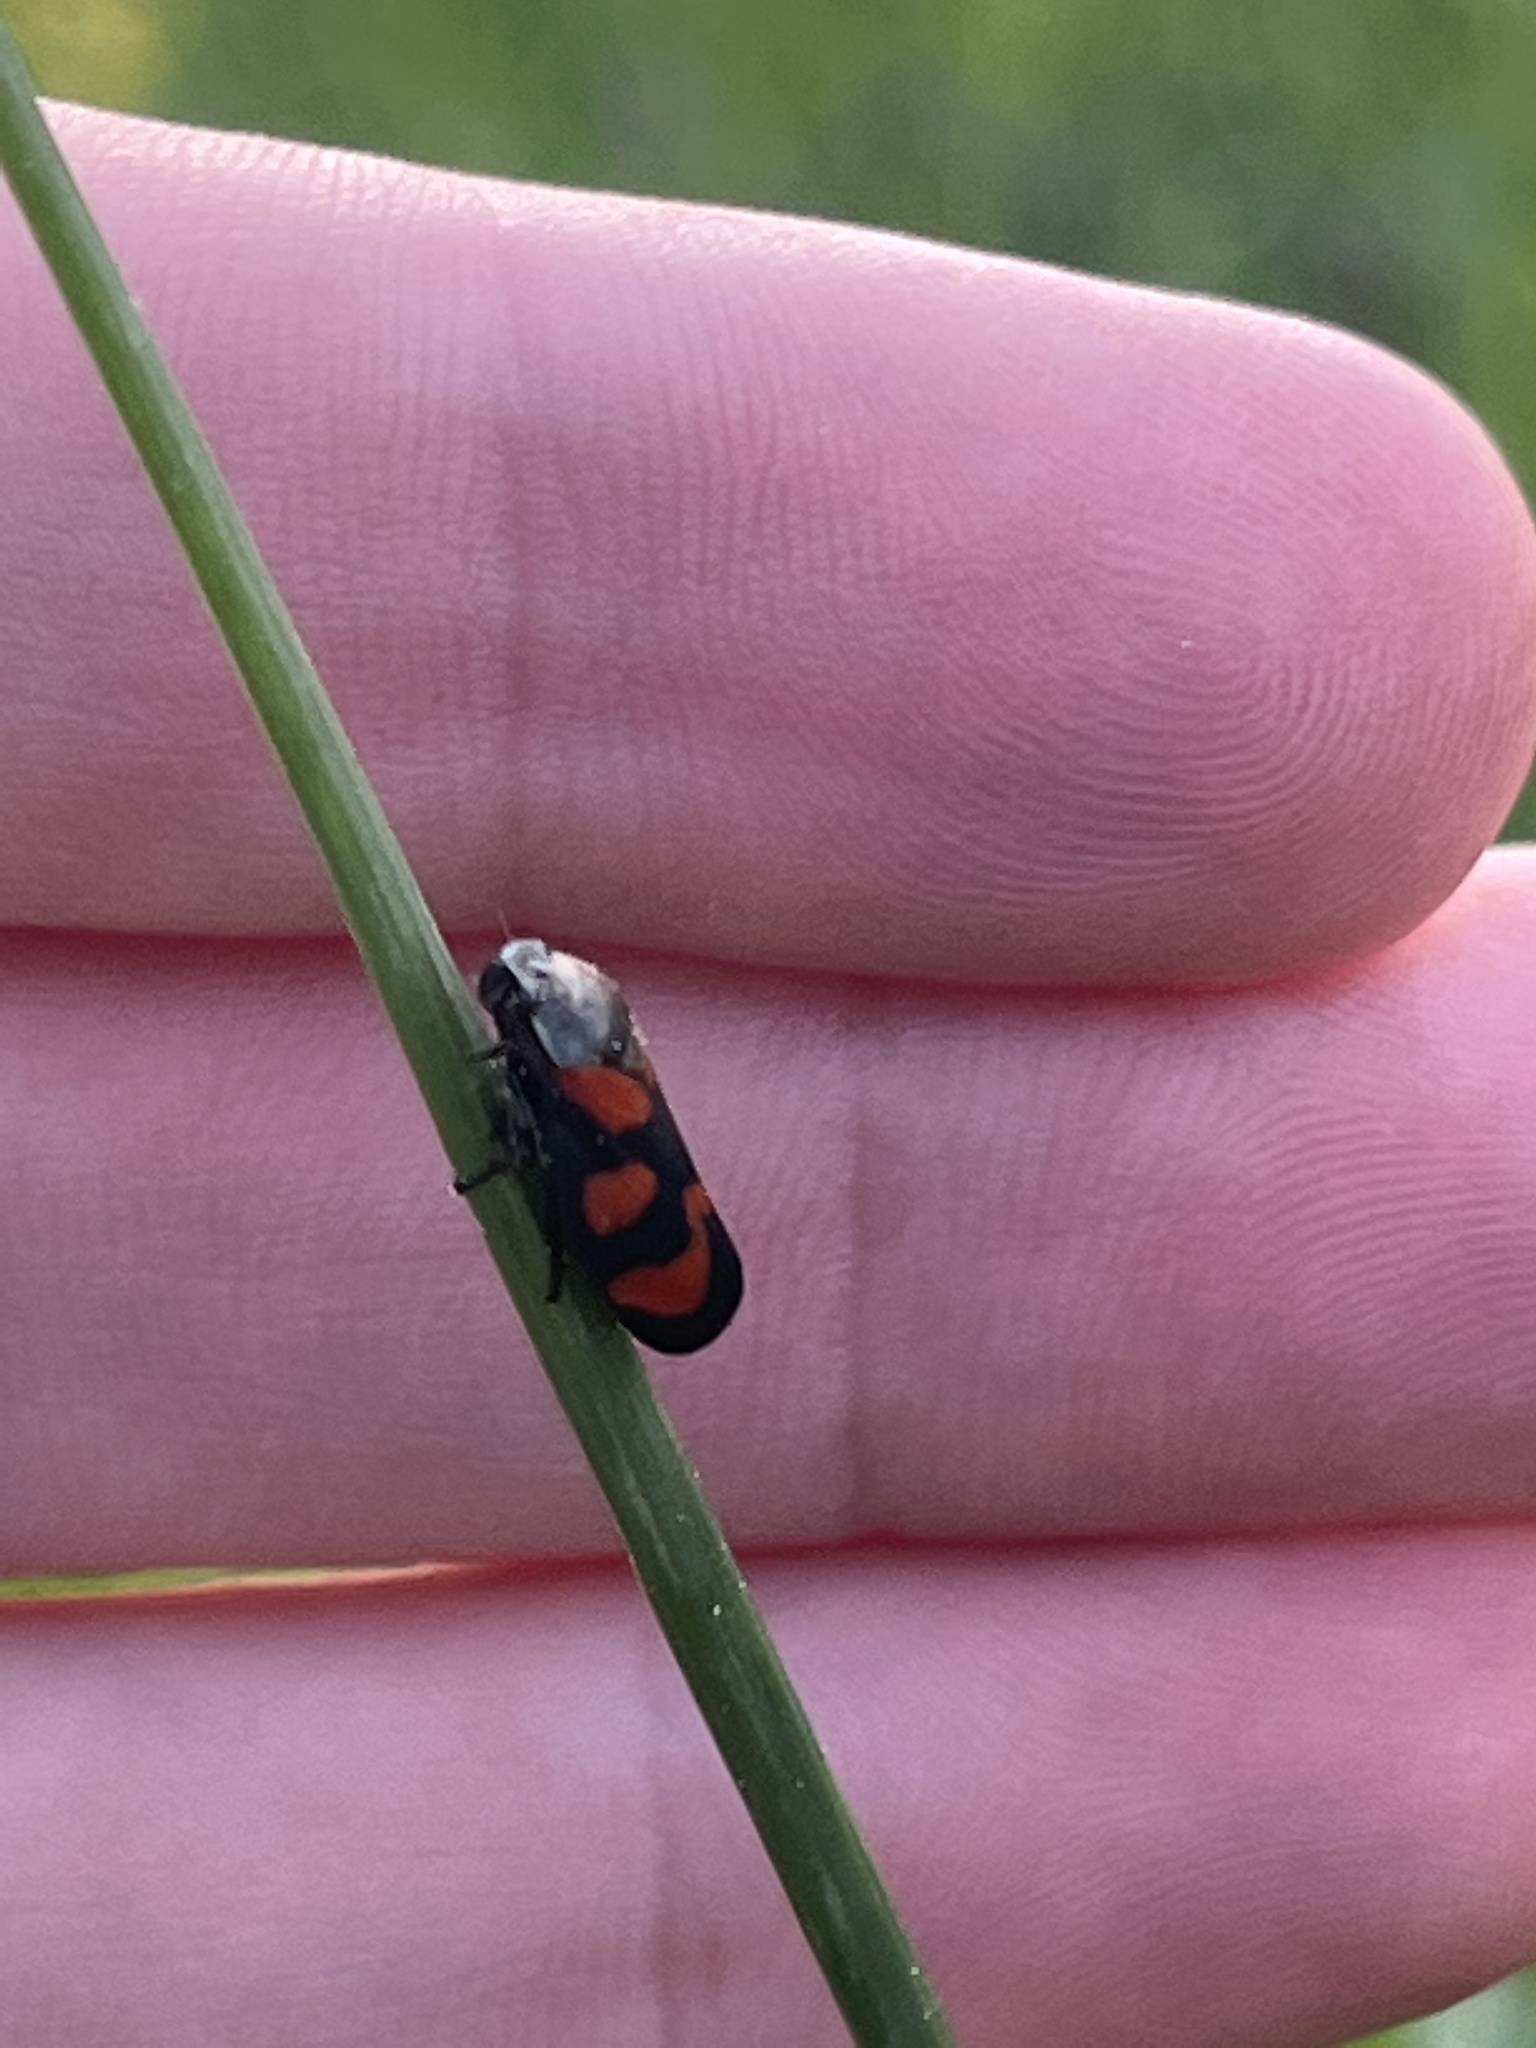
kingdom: Animalia
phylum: Arthropoda
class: Insecta
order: Hemiptera
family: Cercopidae
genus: Cercopis
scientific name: Cercopis vulnerata
